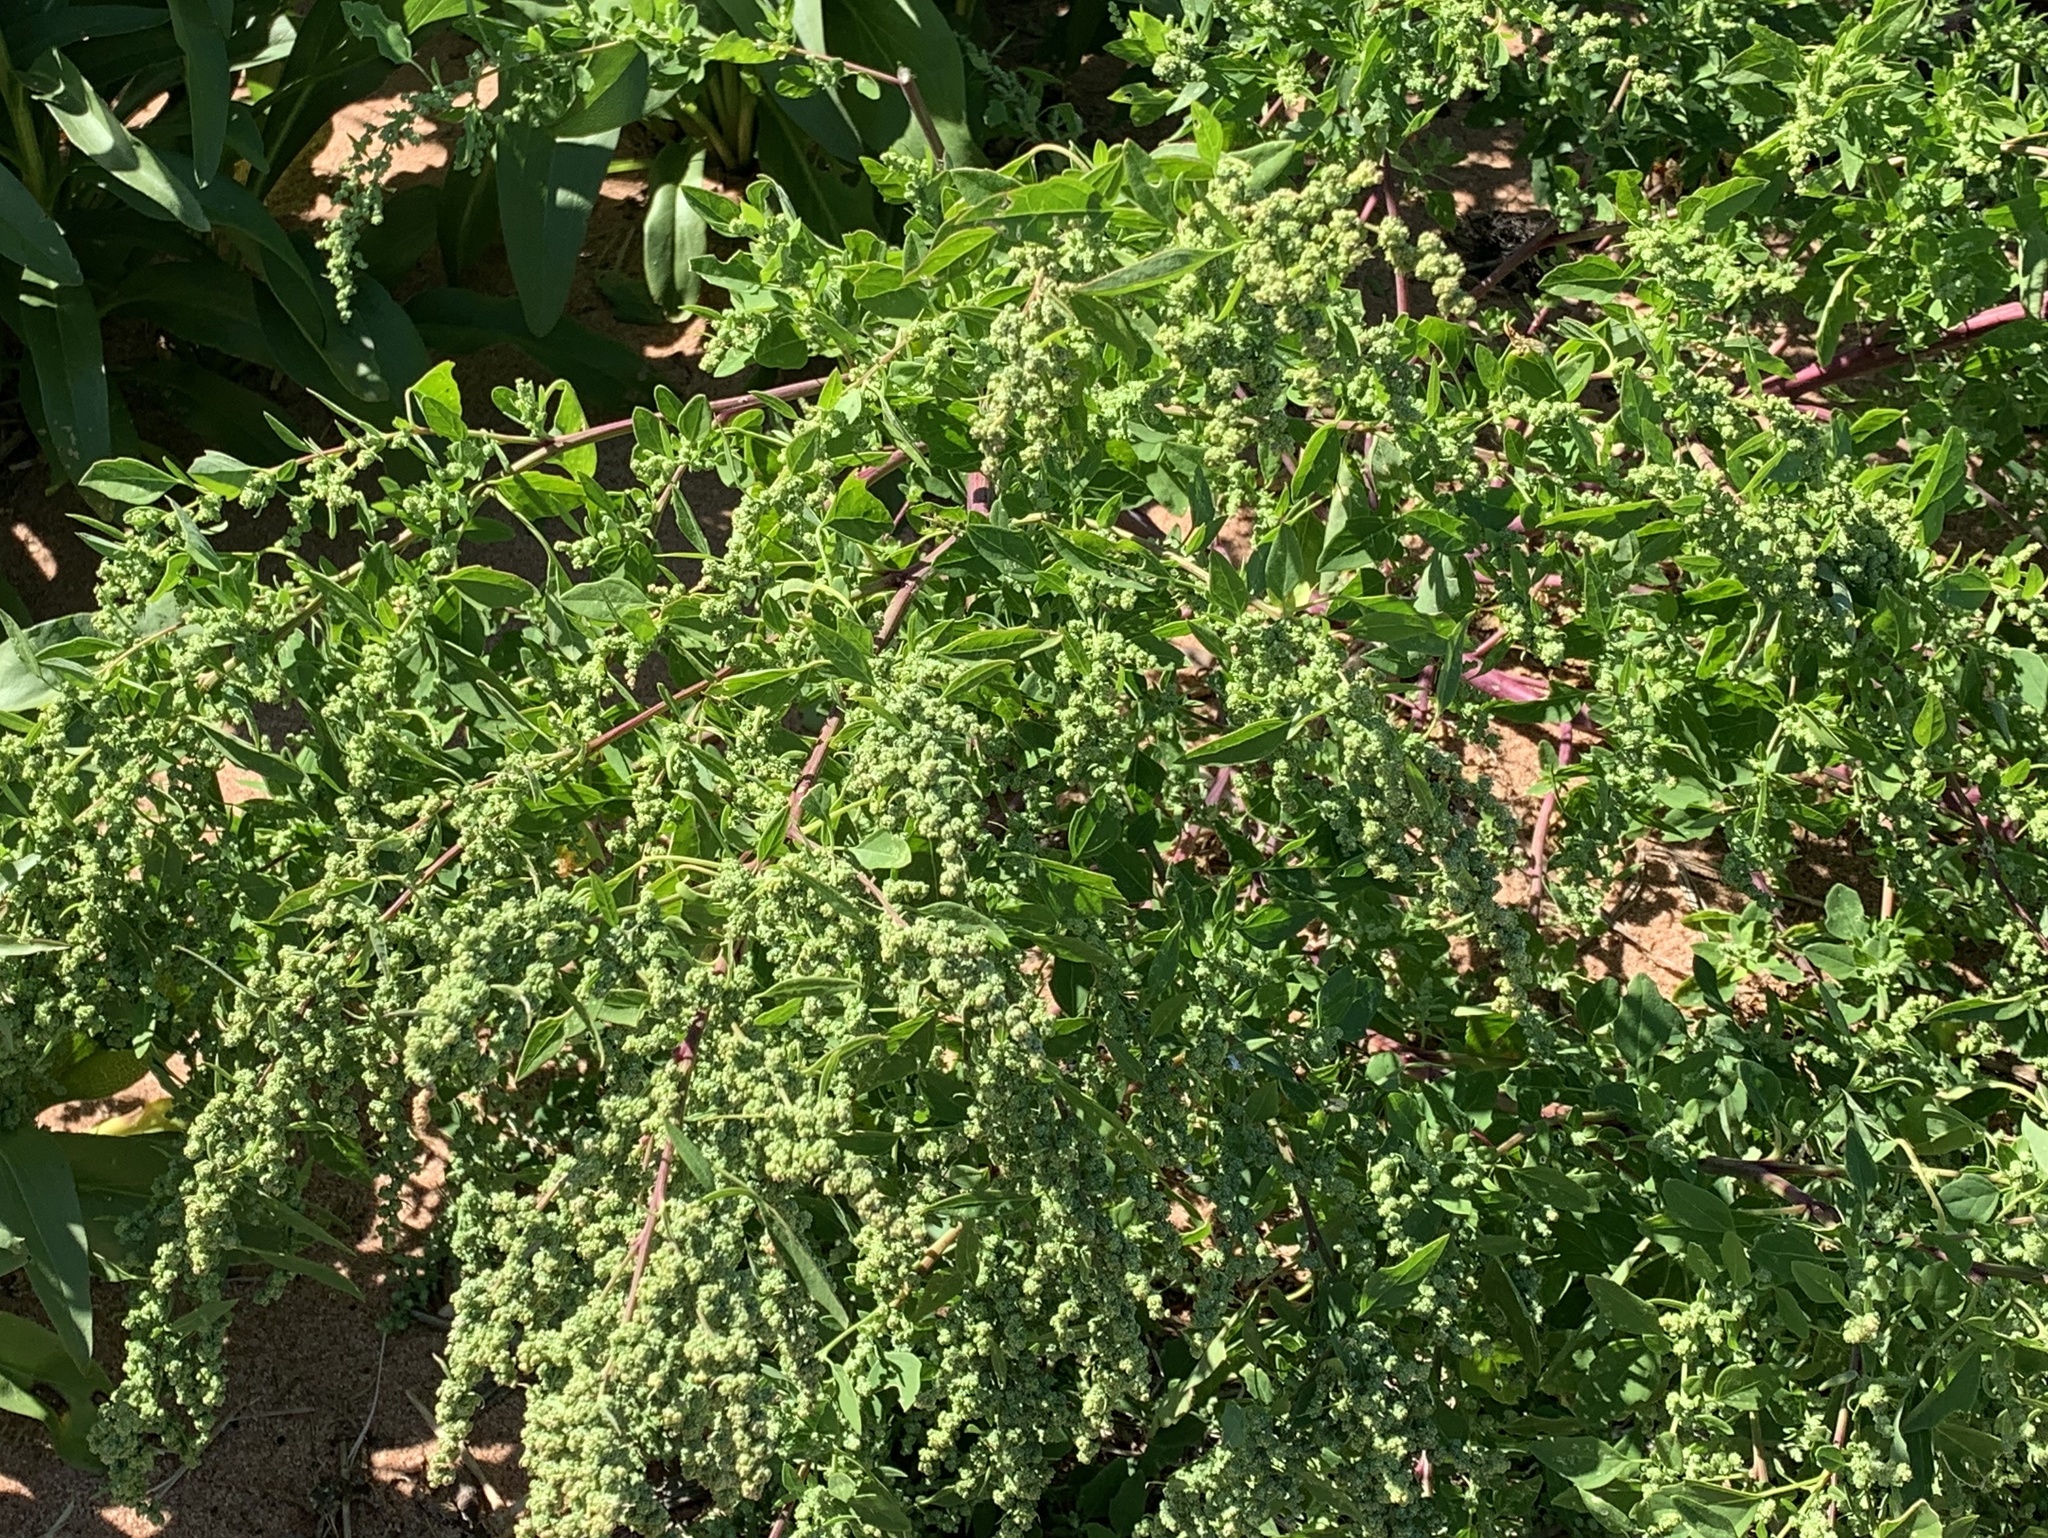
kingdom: Plantae
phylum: Tracheophyta
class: Magnoliopsida
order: Caryophyllales
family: Amaranthaceae
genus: Chenopodium
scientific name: Chenopodium album
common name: Fat-hen
